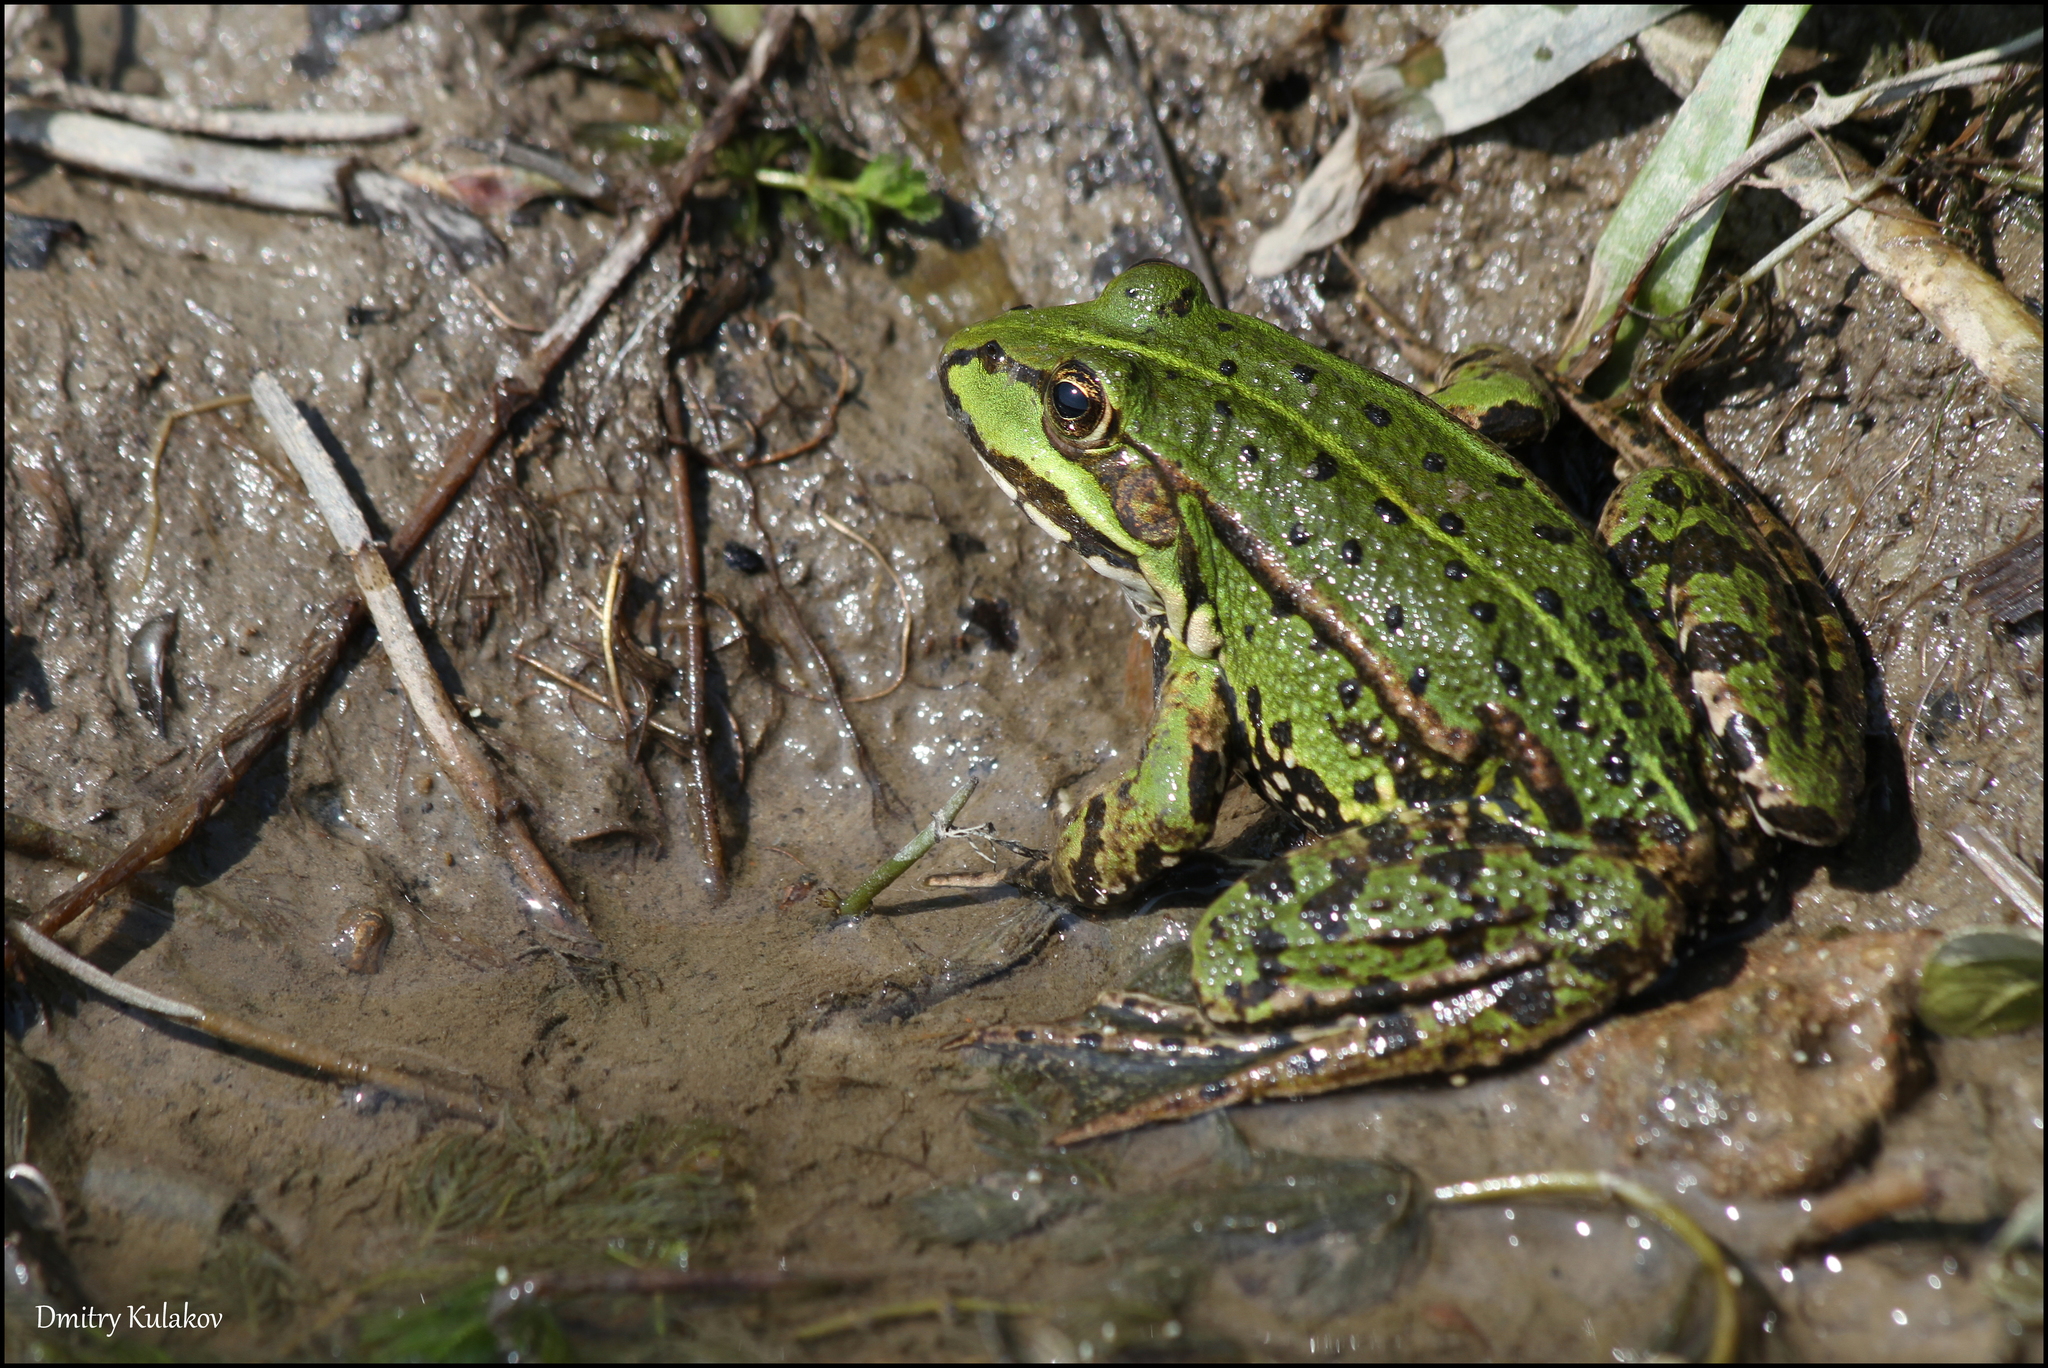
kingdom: Animalia
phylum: Chordata
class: Amphibia
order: Anura
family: Ranidae
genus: Pelophylax
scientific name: Pelophylax
